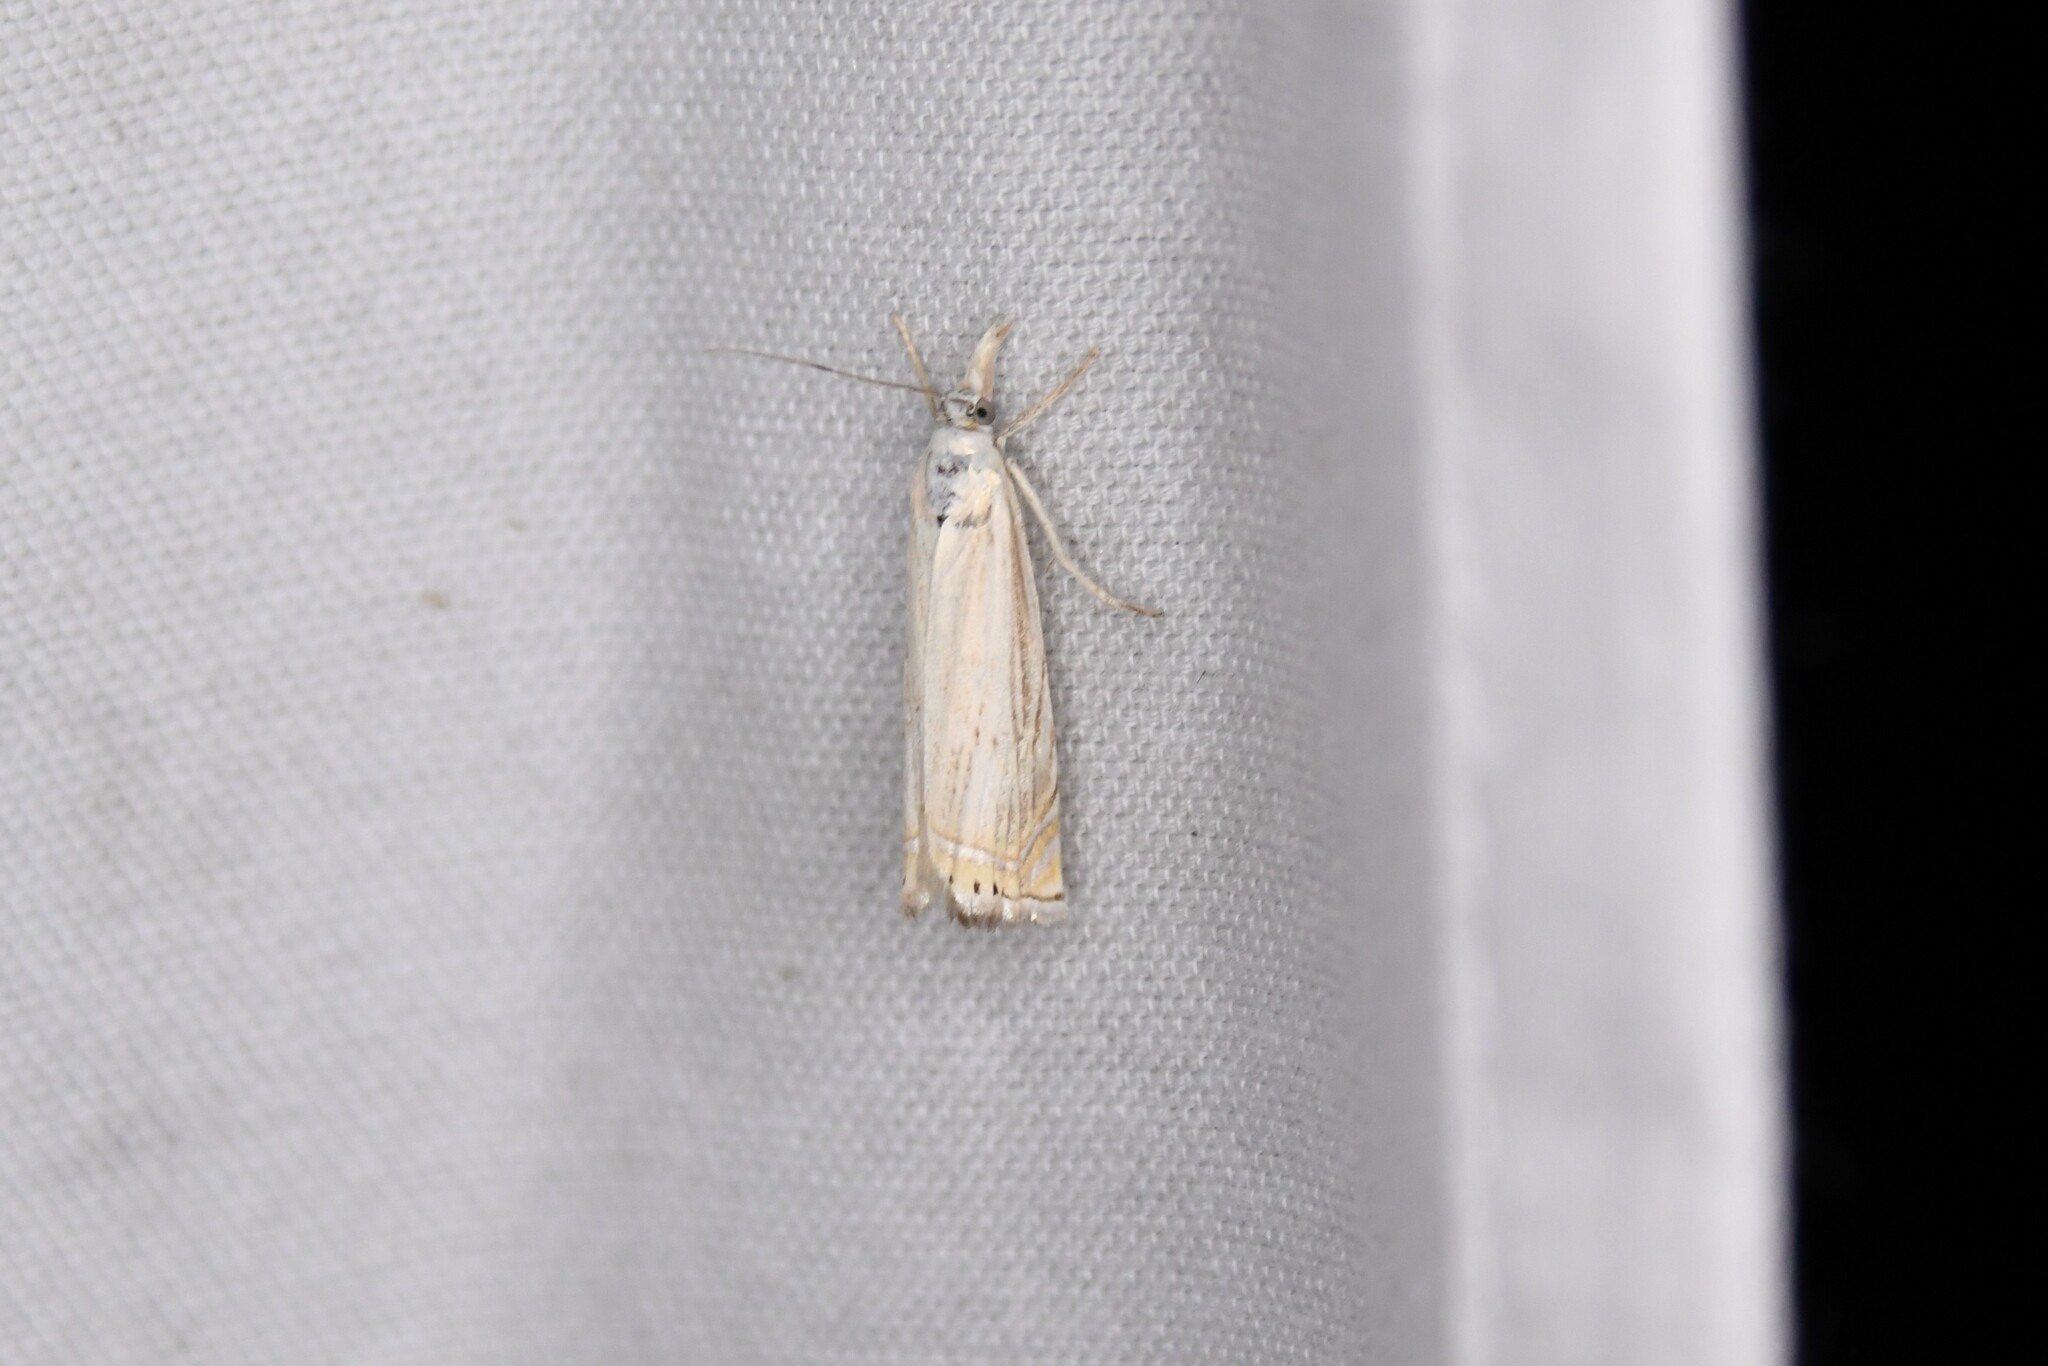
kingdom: Animalia
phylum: Arthropoda
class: Insecta
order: Lepidoptera
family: Crambidae
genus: Chrysoteuchia
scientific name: Chrysoteuchia topiarius
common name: Topiary grass-veneer
